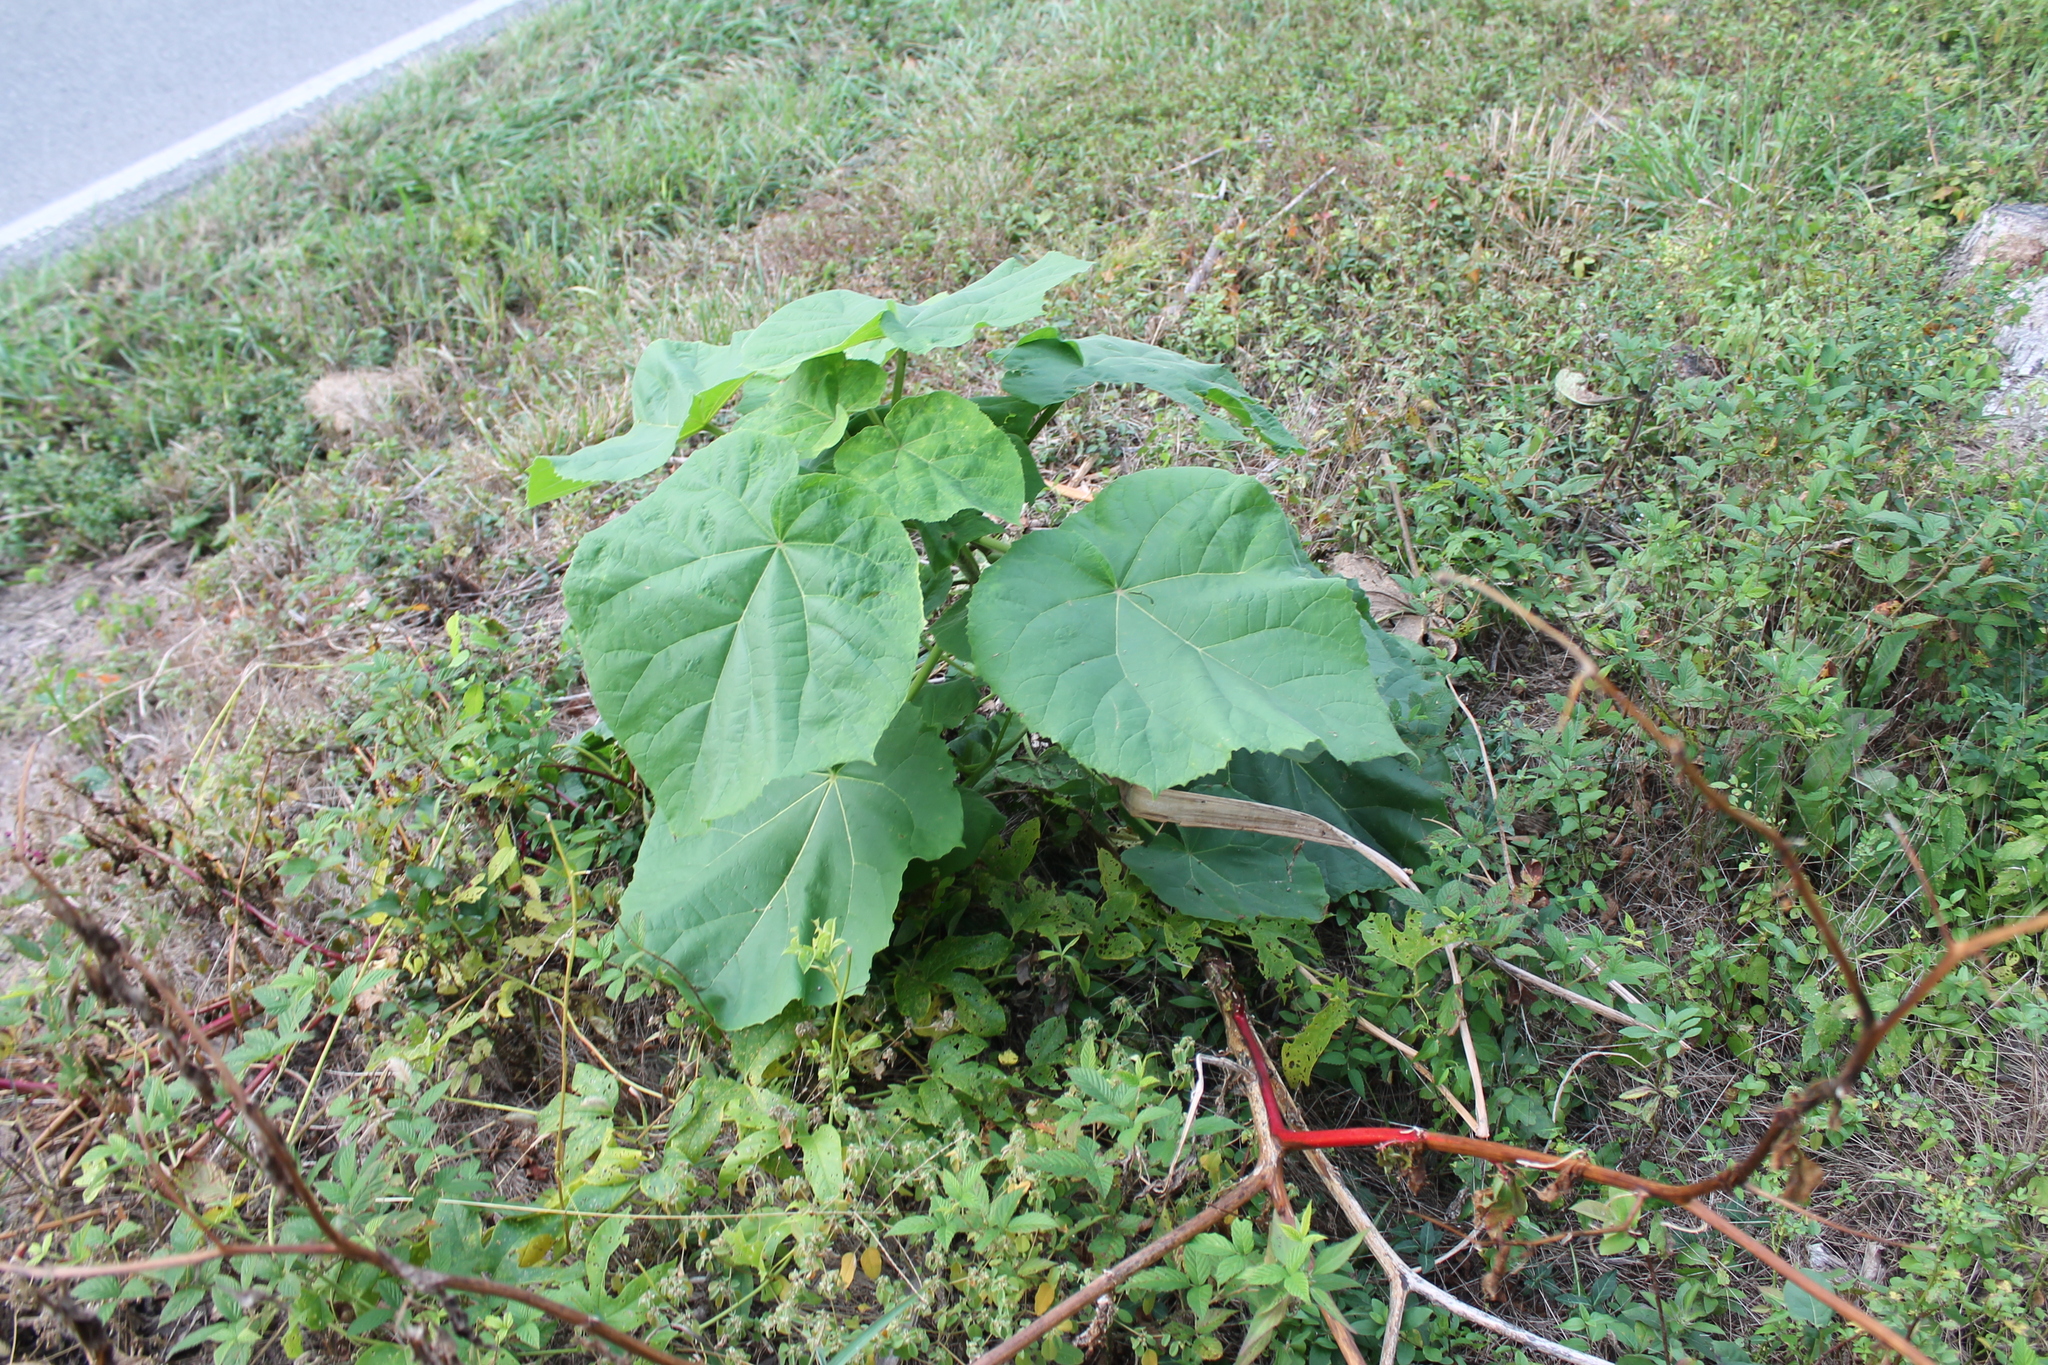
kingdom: Plantae
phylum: Tracheophyta
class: Magnoliopsida
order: Lamiales
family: Paulowniaceae
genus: Paulownia
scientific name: Paulownia tomentosa
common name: Foxglove-tree
